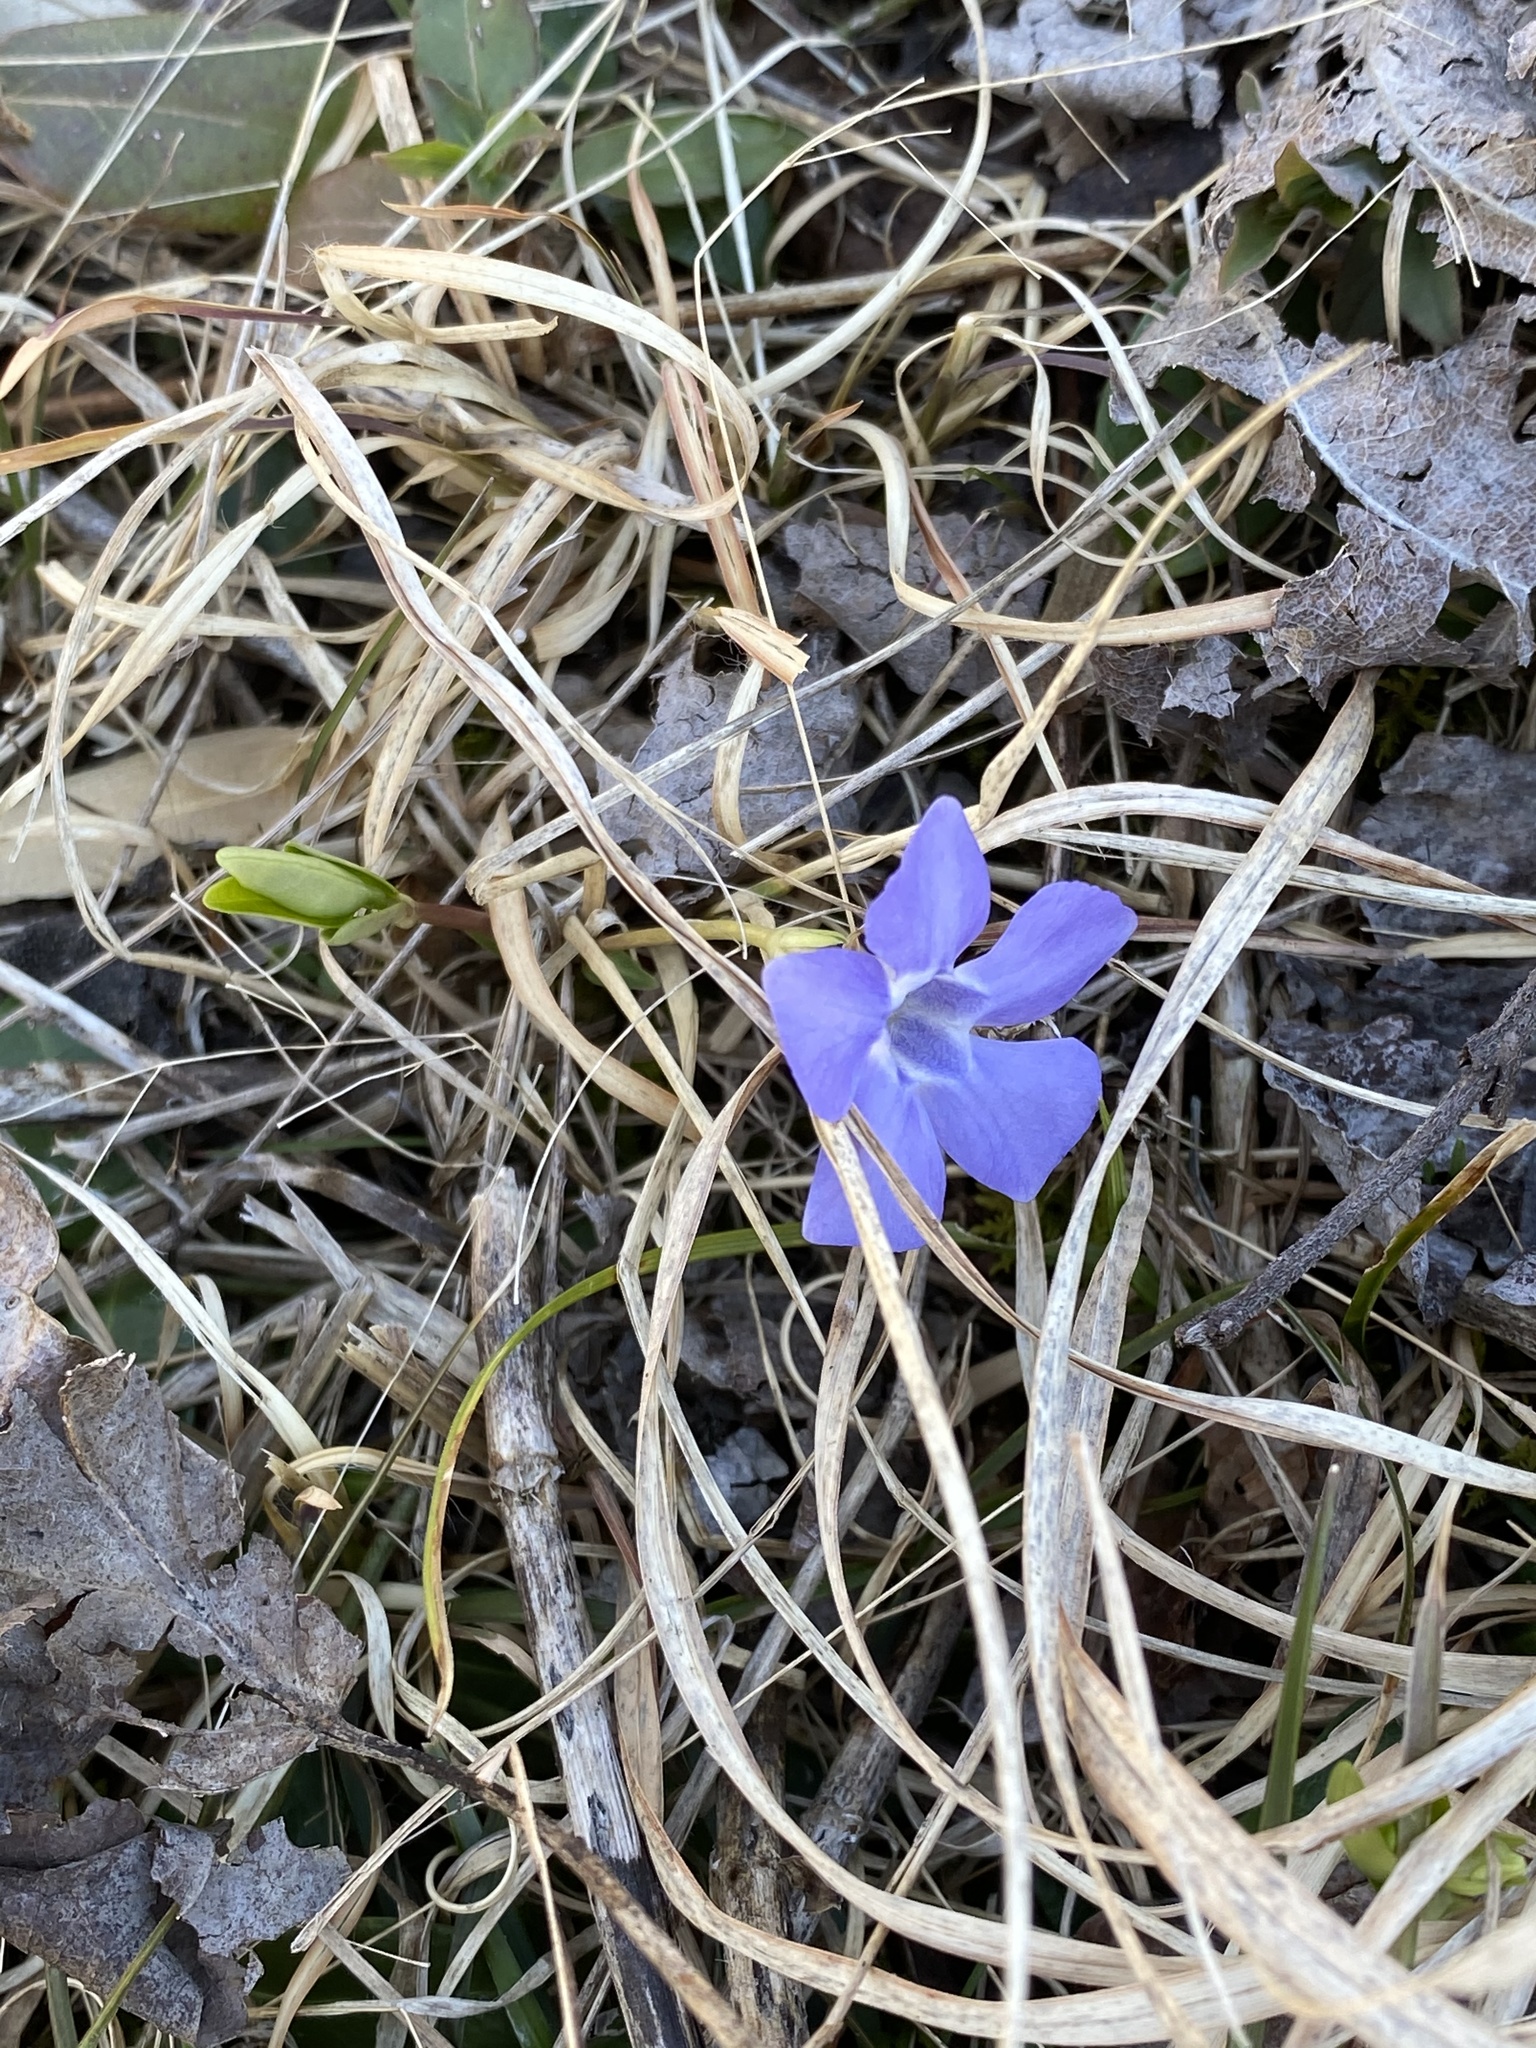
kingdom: Plantae
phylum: Tracheophyta
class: Magnoliopsida
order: Gentianales
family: Apocynaceae
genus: Vinca
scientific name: Vinca minor
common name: Lesser periwinkle
